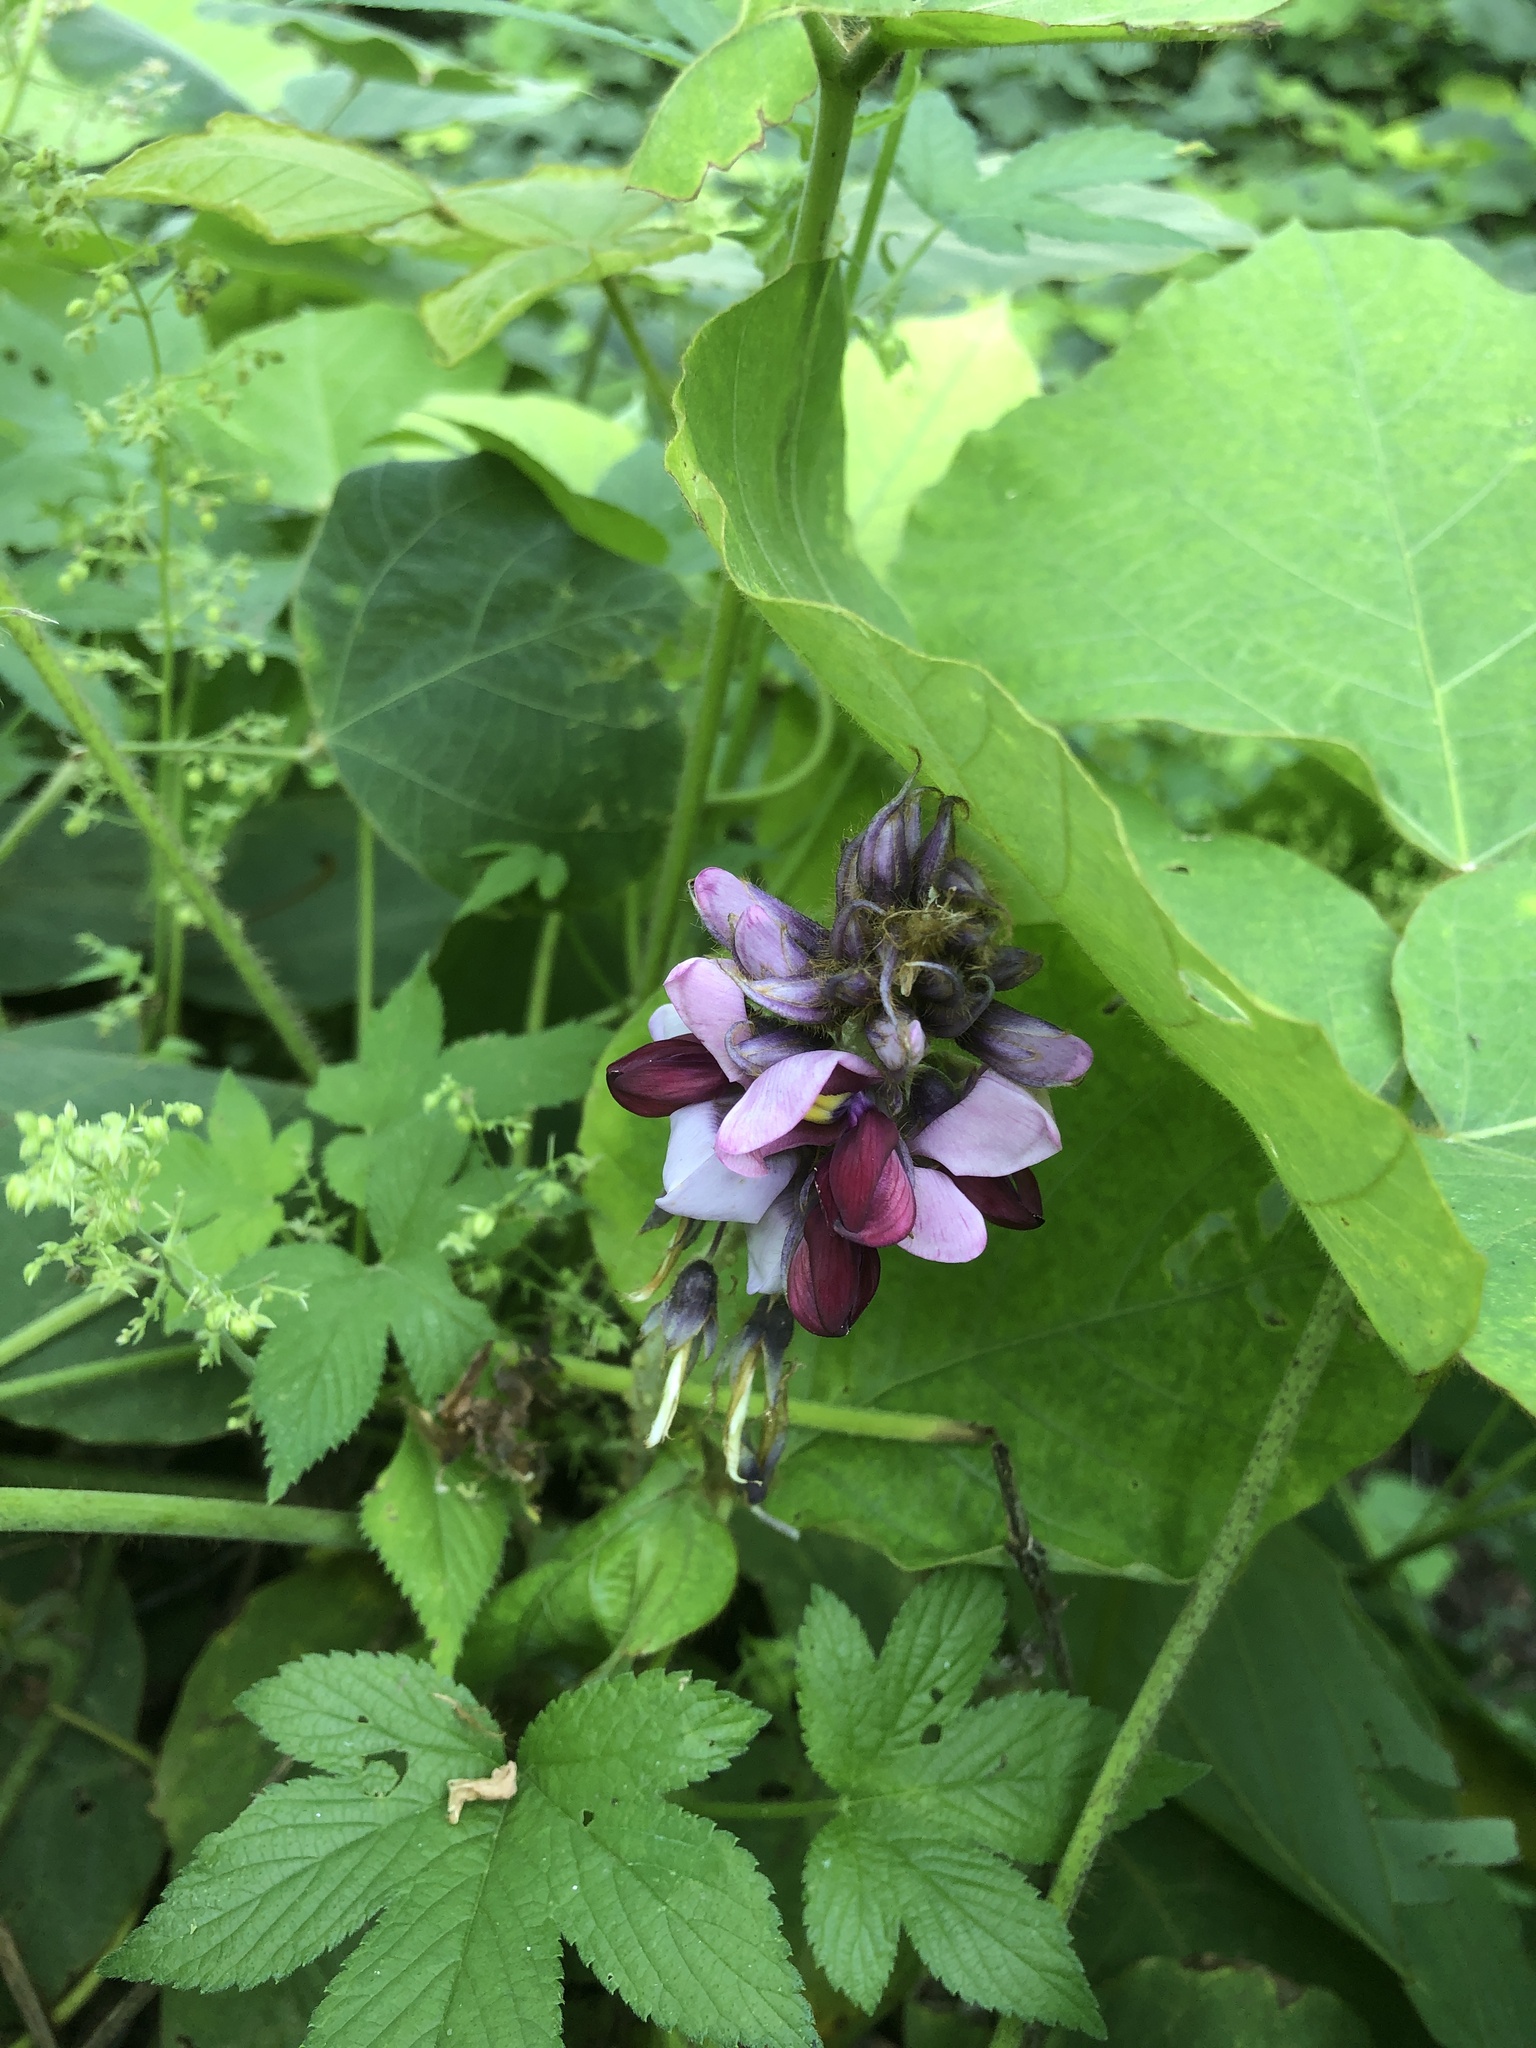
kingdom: Plantae
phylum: Tracheophyta
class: Magnoliopsida
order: Fabales
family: Fabaceae
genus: Pueraria
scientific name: Pueraria montana
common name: Kudzu
